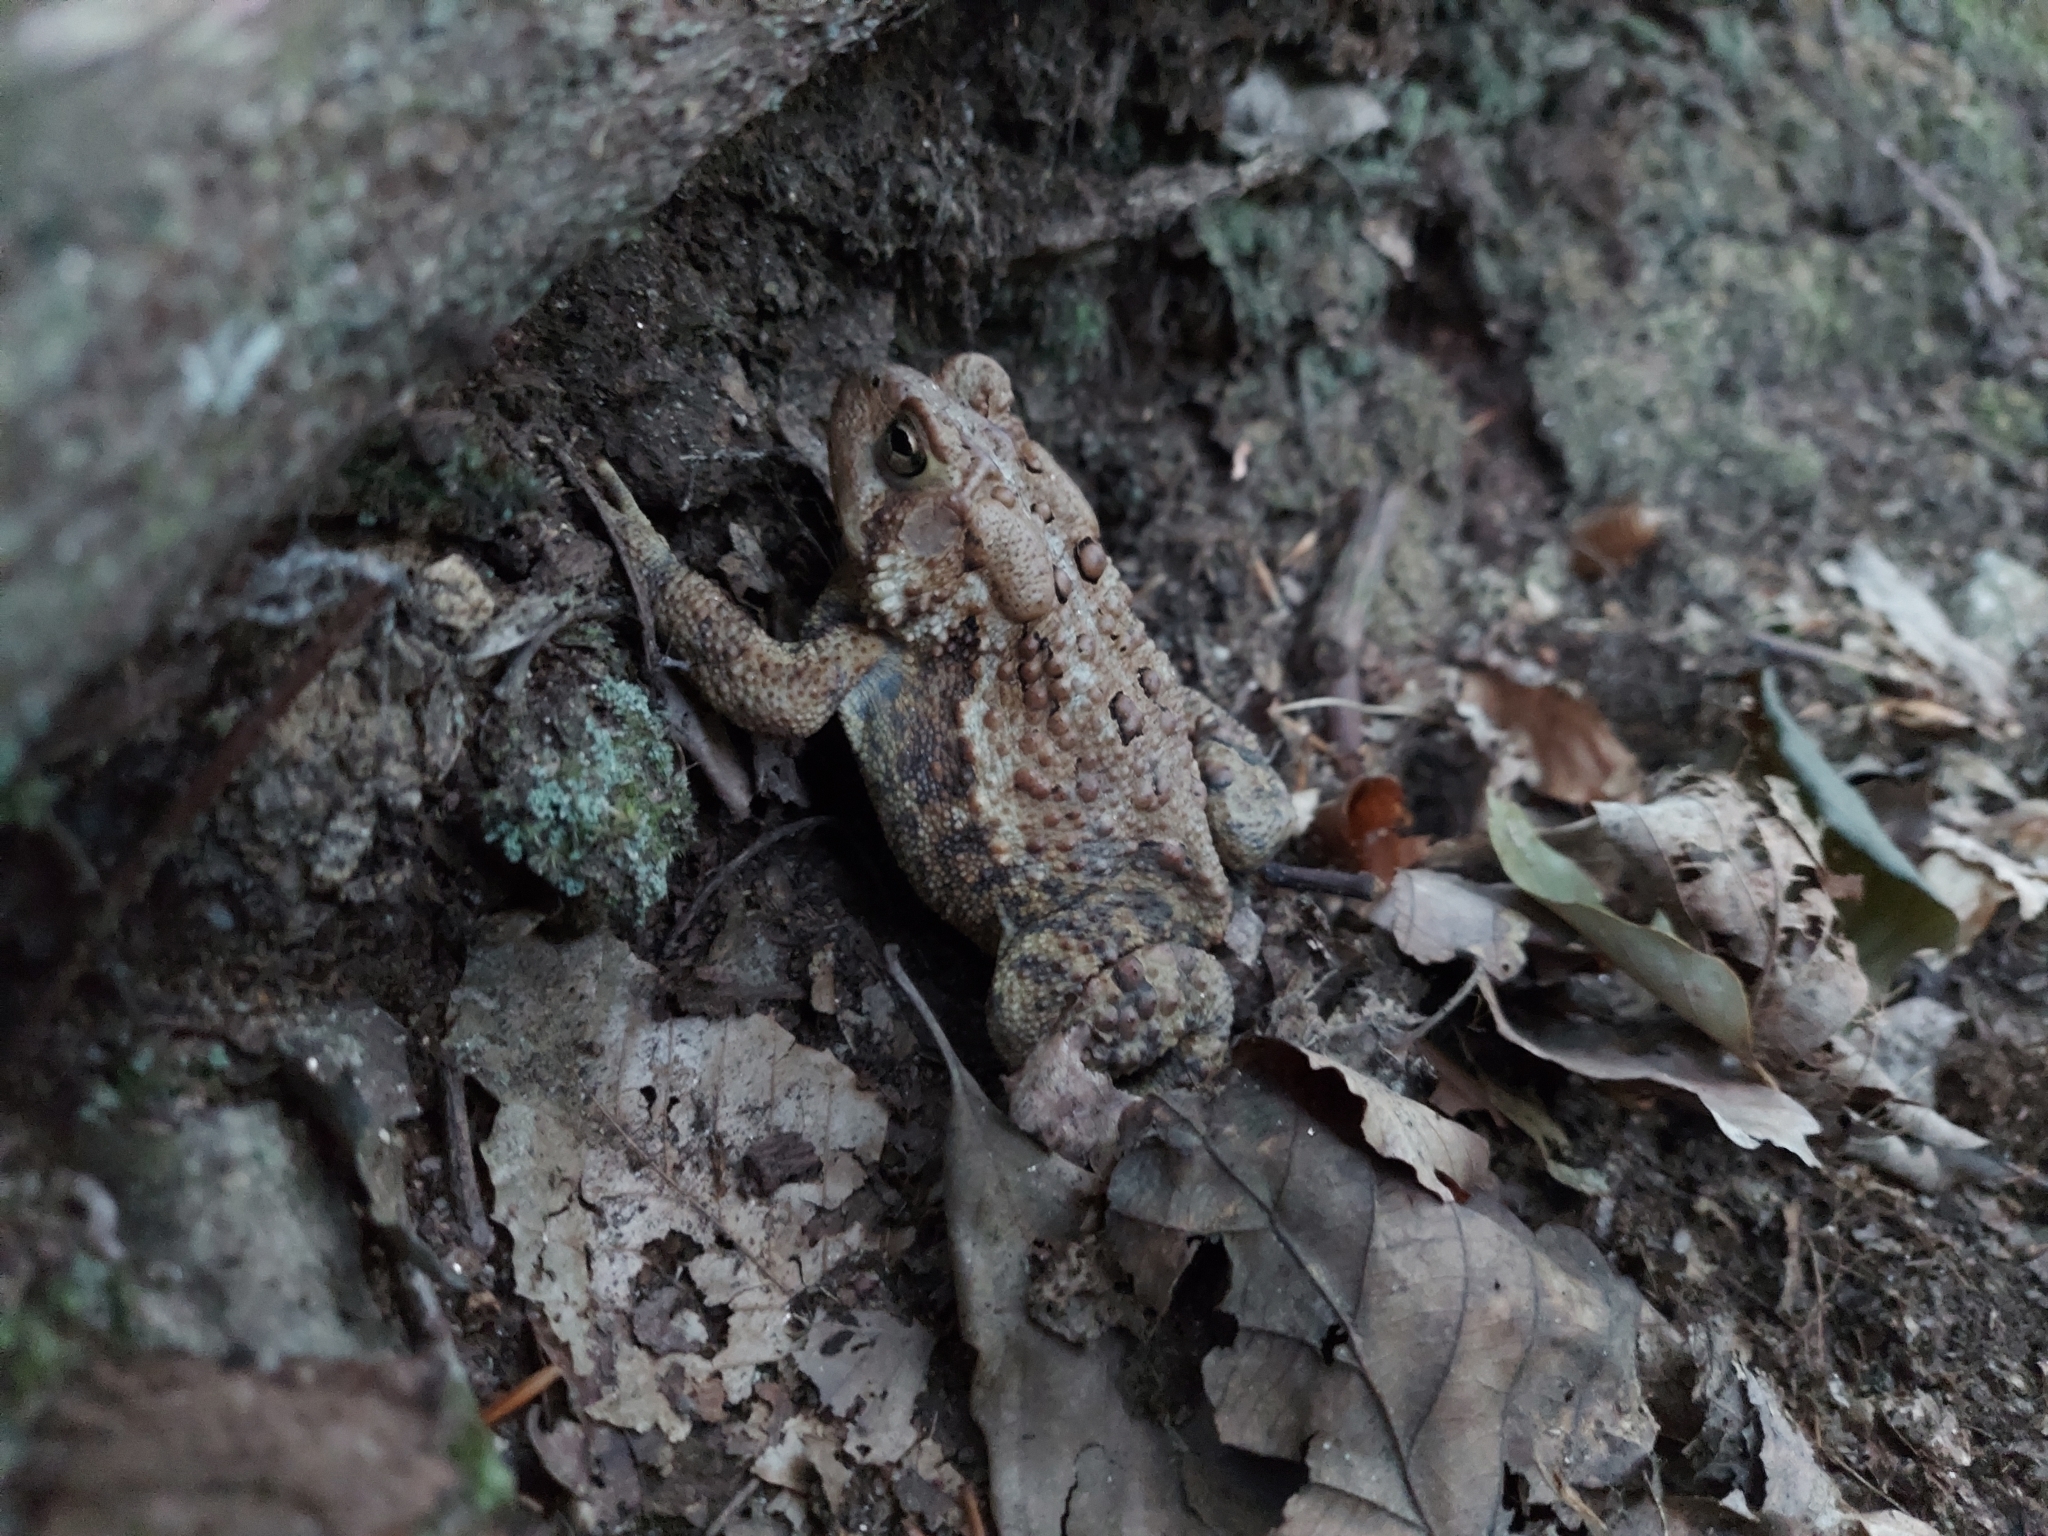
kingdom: Animalia
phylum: Chordata
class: Amphibia
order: Anura
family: Bufonidae
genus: Anaxyrus
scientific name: Anaxyrus americanus
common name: American toad
